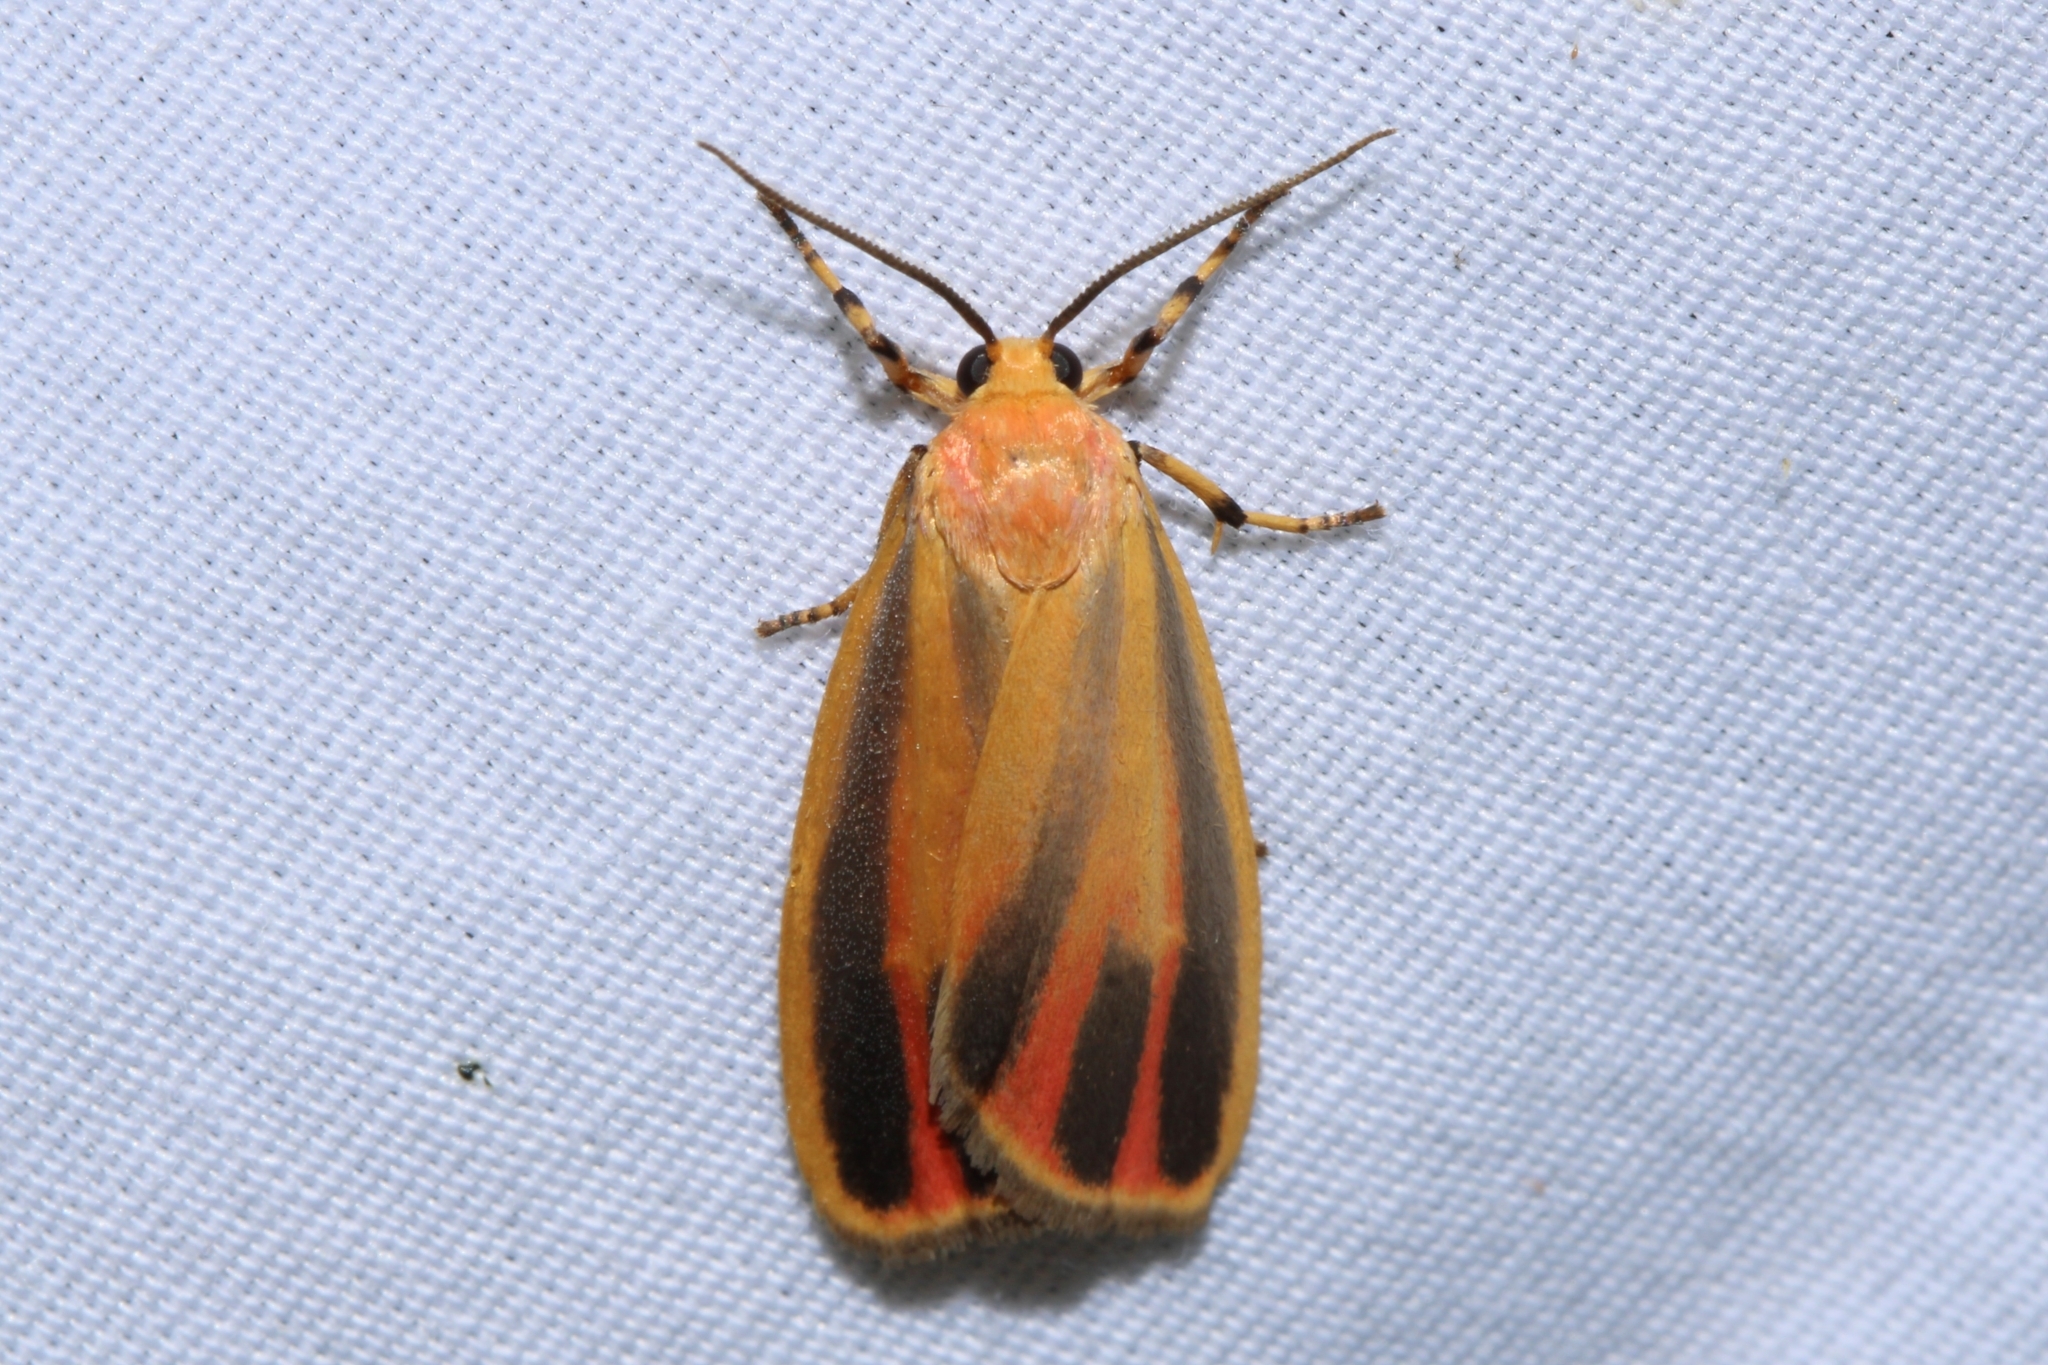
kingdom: Animalia
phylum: Arthropoda
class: Insecta
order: Lepidoptera
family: Erebidae
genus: Hypoprepia
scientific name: Hypoprepia fucosa
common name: Painted lichen moth
